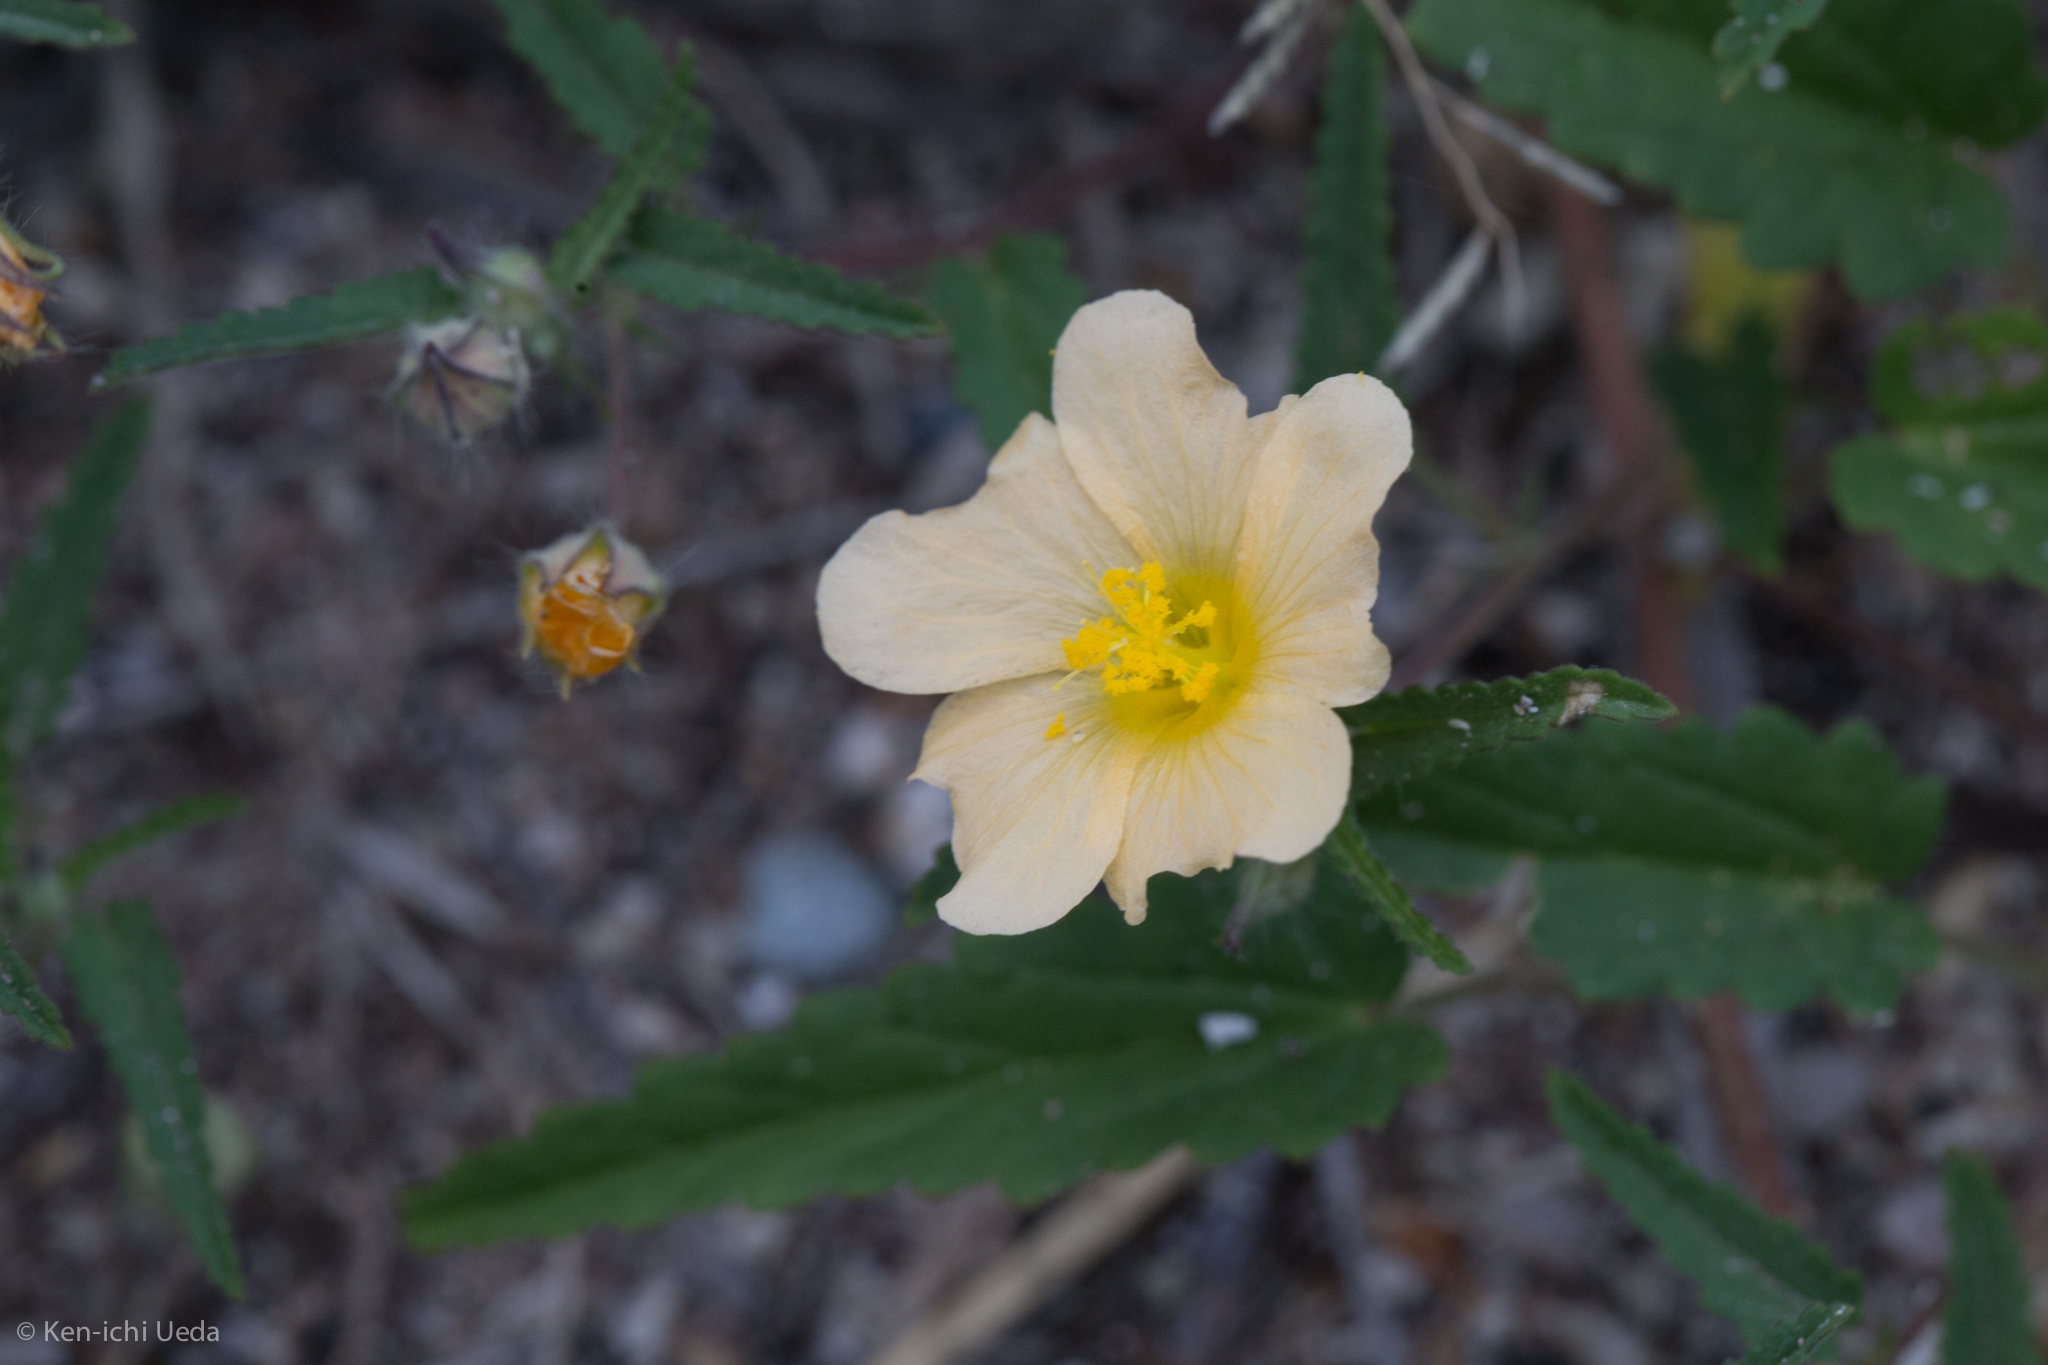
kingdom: Plantae
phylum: Tracheophyta
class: Magnoliopsida
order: Malvales
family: Malvaceae
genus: Sida
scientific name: Sida abutilifolia
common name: Spreading fanpetals
